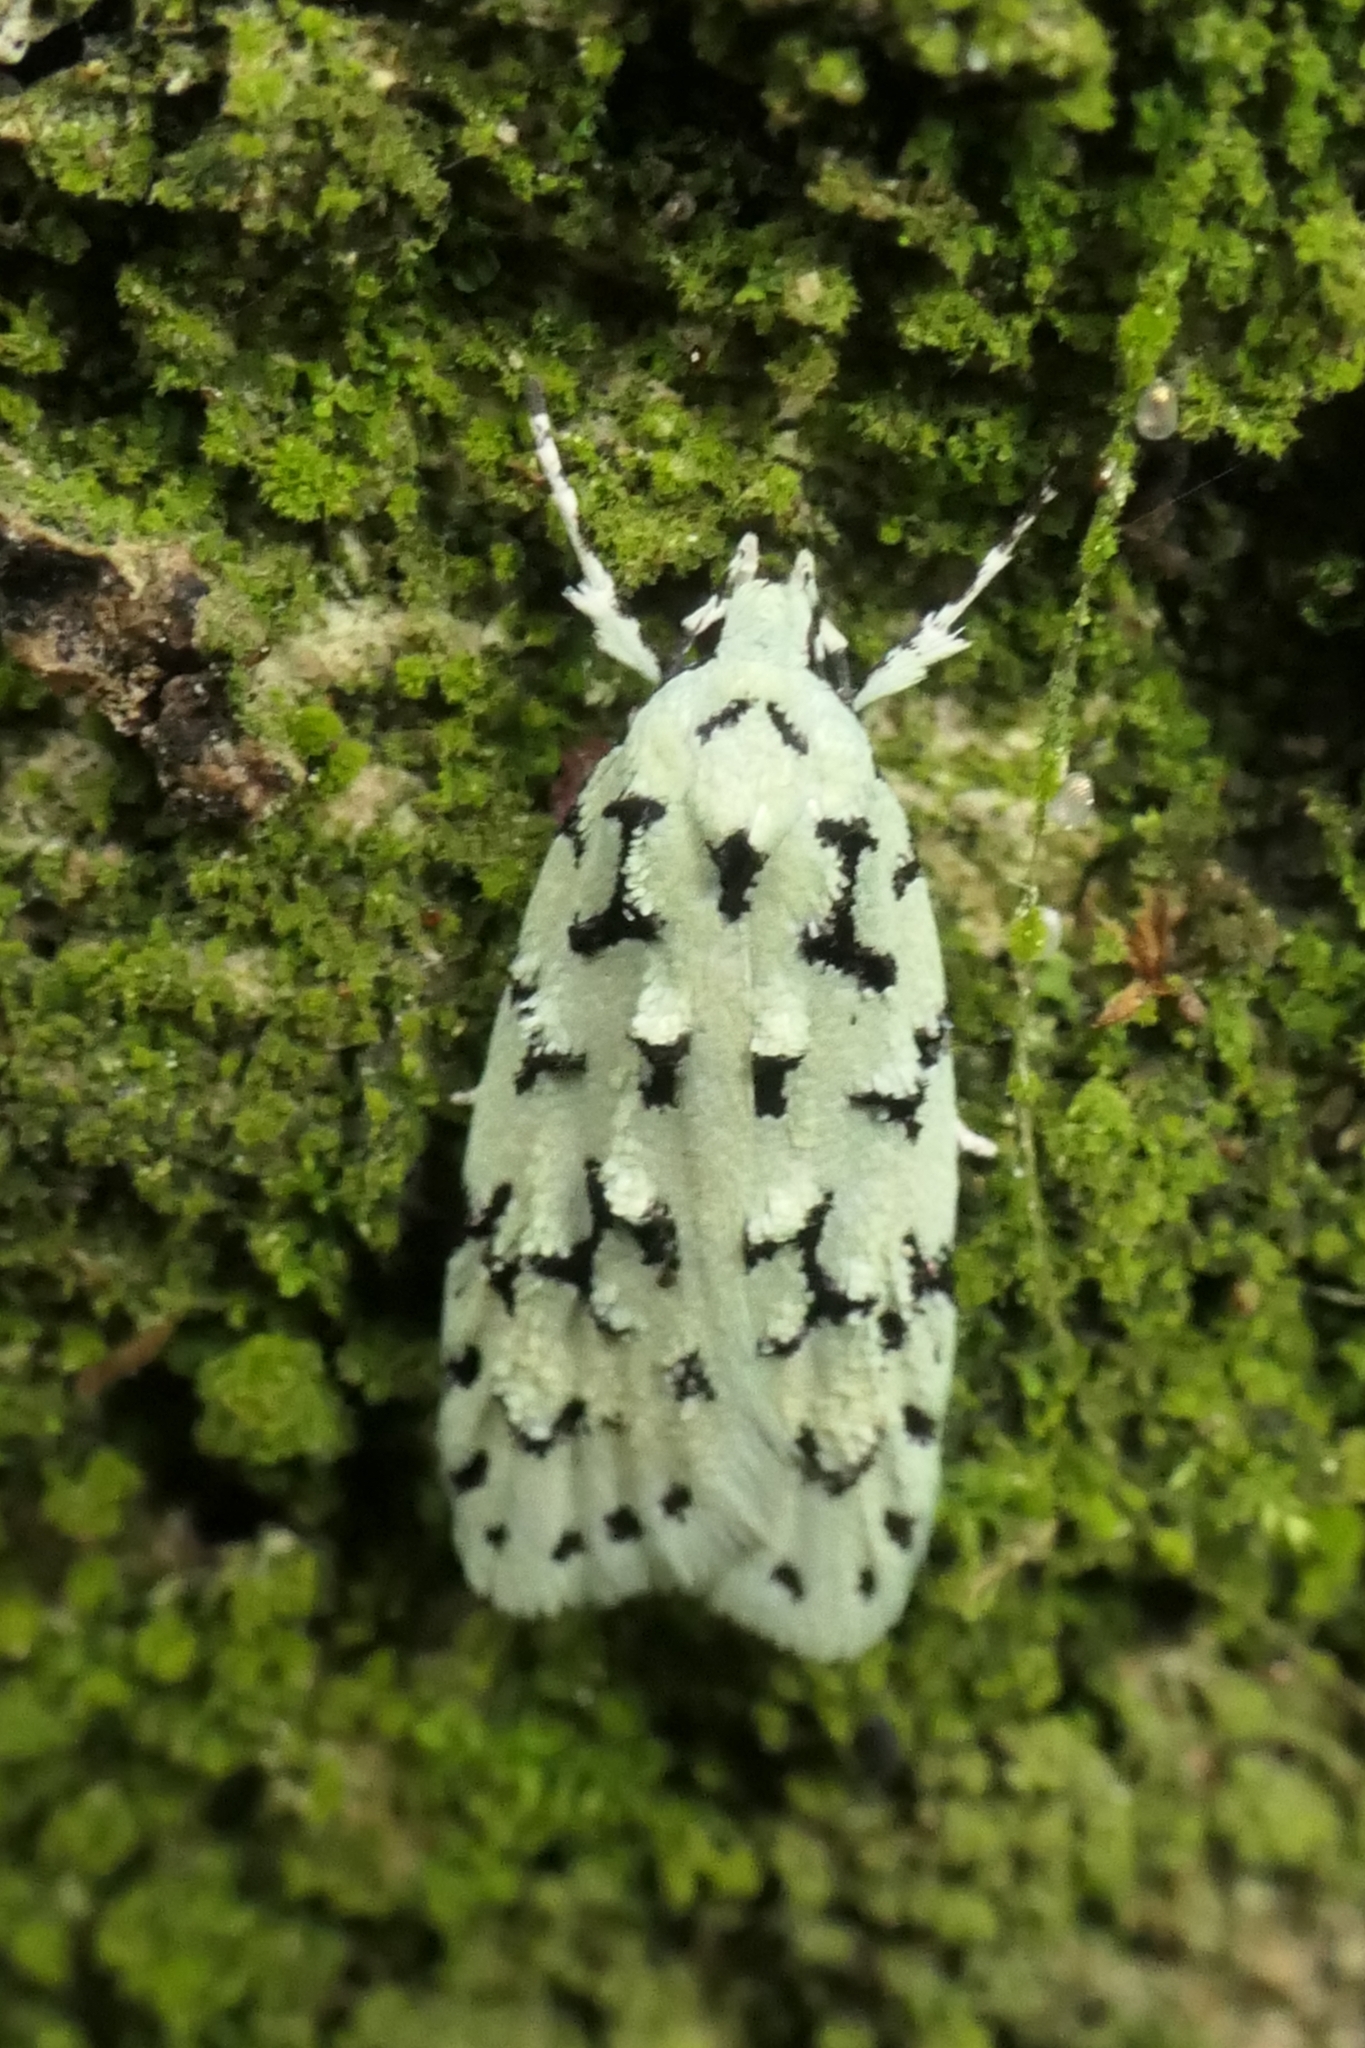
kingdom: Animalia
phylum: Arthropoda
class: Insecta
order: Lepidoptera
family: Oecophoridae
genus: Izatha
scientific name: Izatha huttoni
